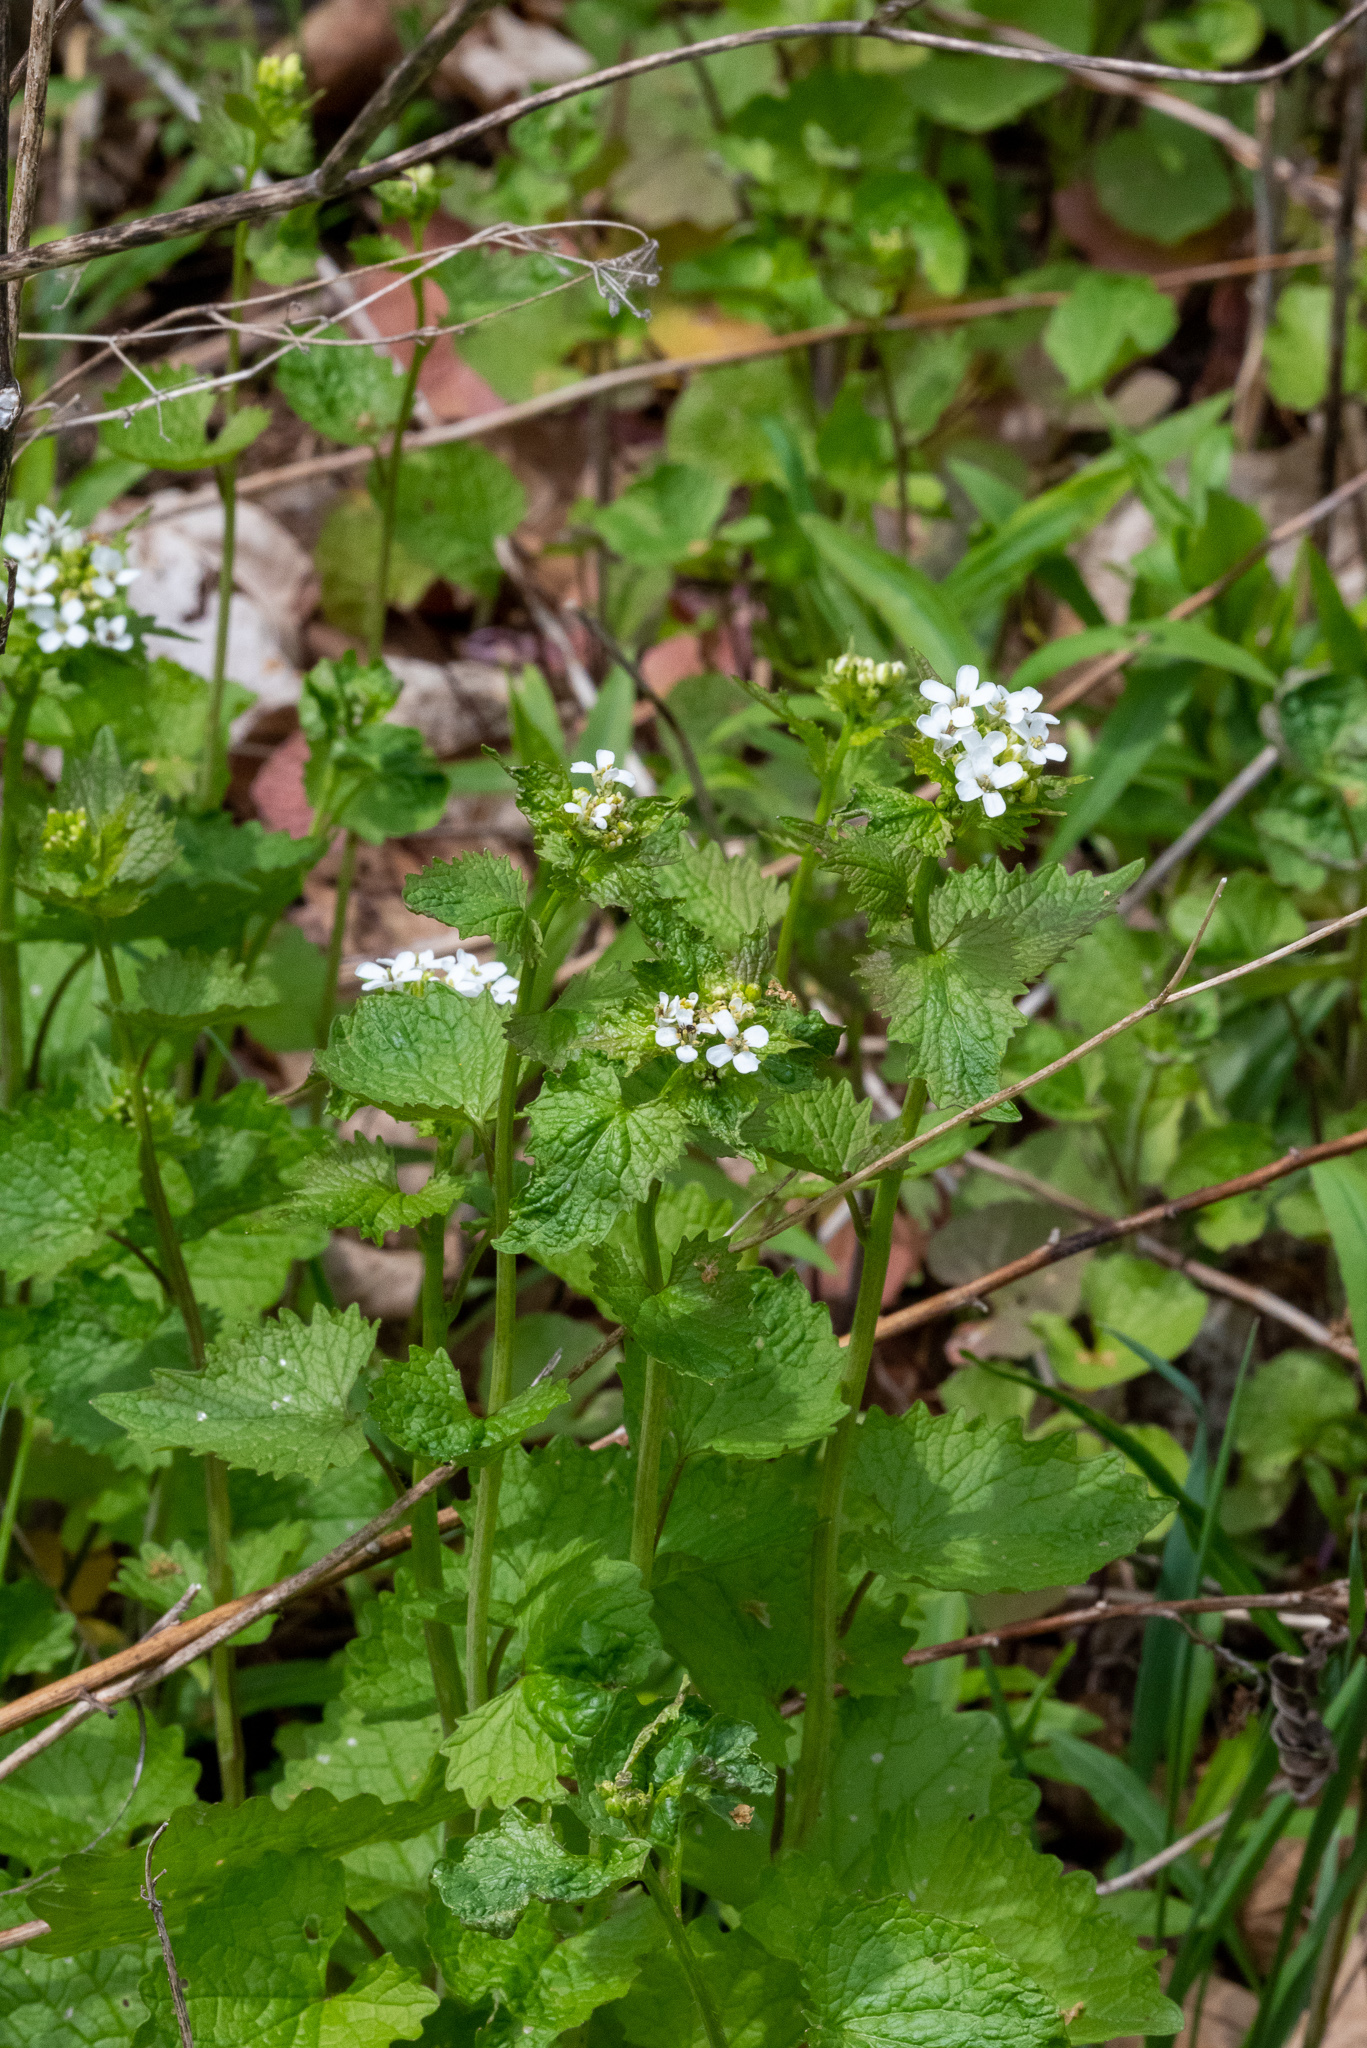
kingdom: Plantae
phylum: Tracheophyta
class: Magnoliopsida
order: Brassicales
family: Brassicaceae
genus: Alliaria
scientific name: Alliaria petiolata
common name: Garlic mustard
